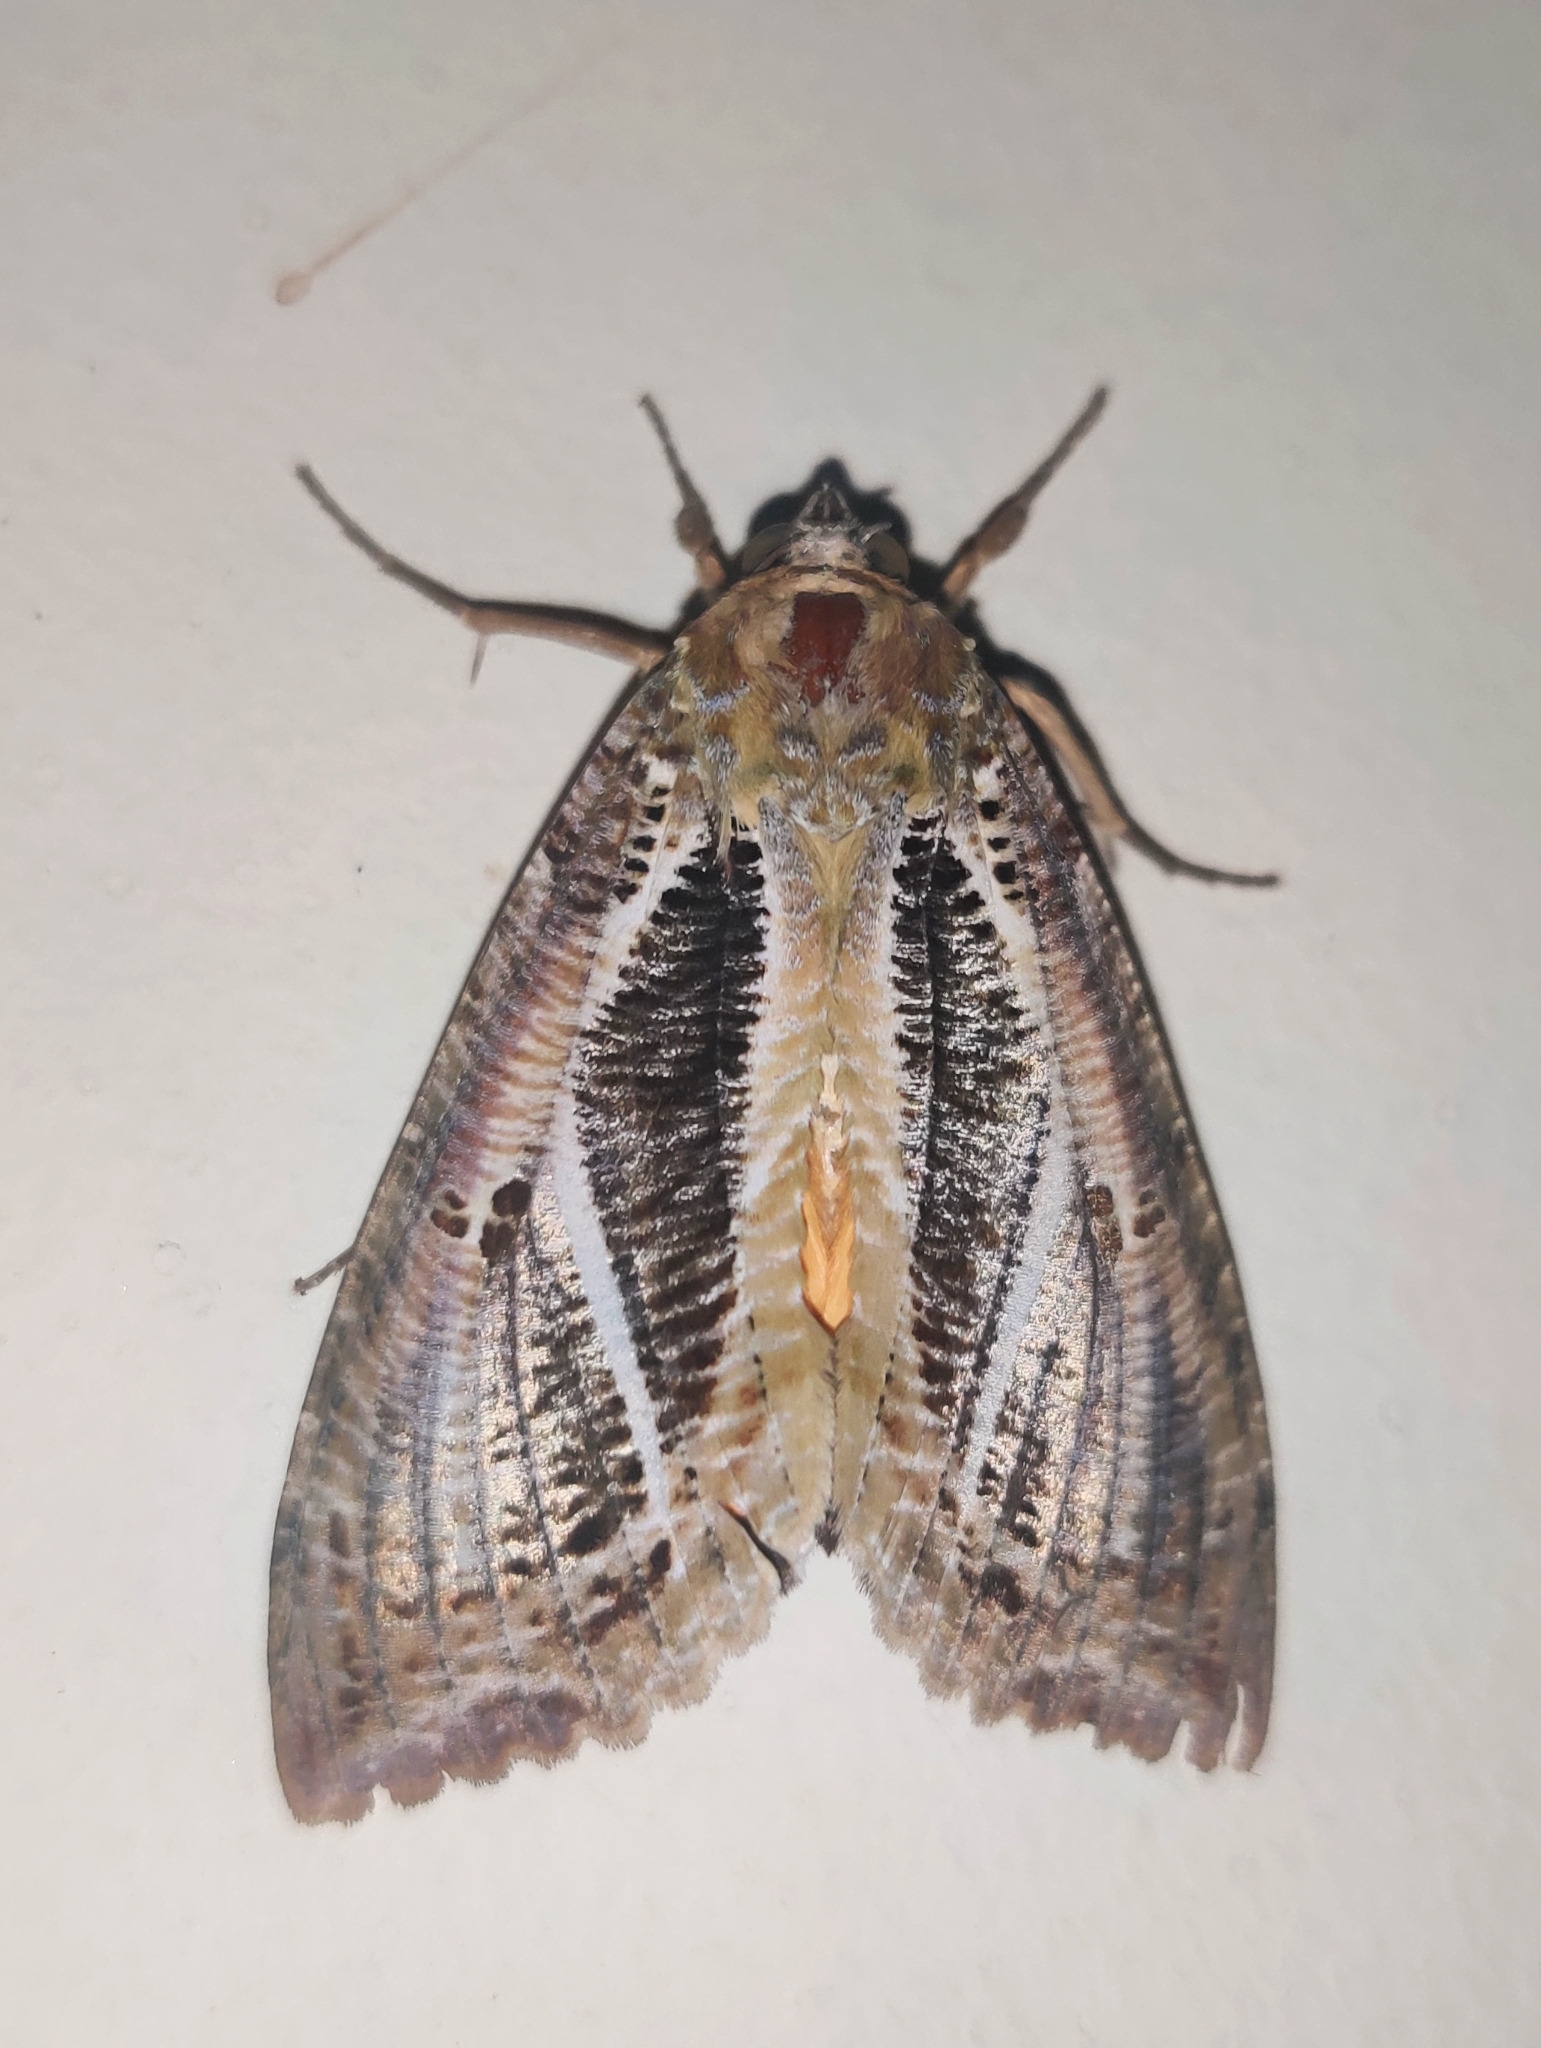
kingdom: Animalia
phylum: Arthropoda
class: Insecta
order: Lepidoptera
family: Erebidae
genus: Eudocima
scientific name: Eudocima materna
